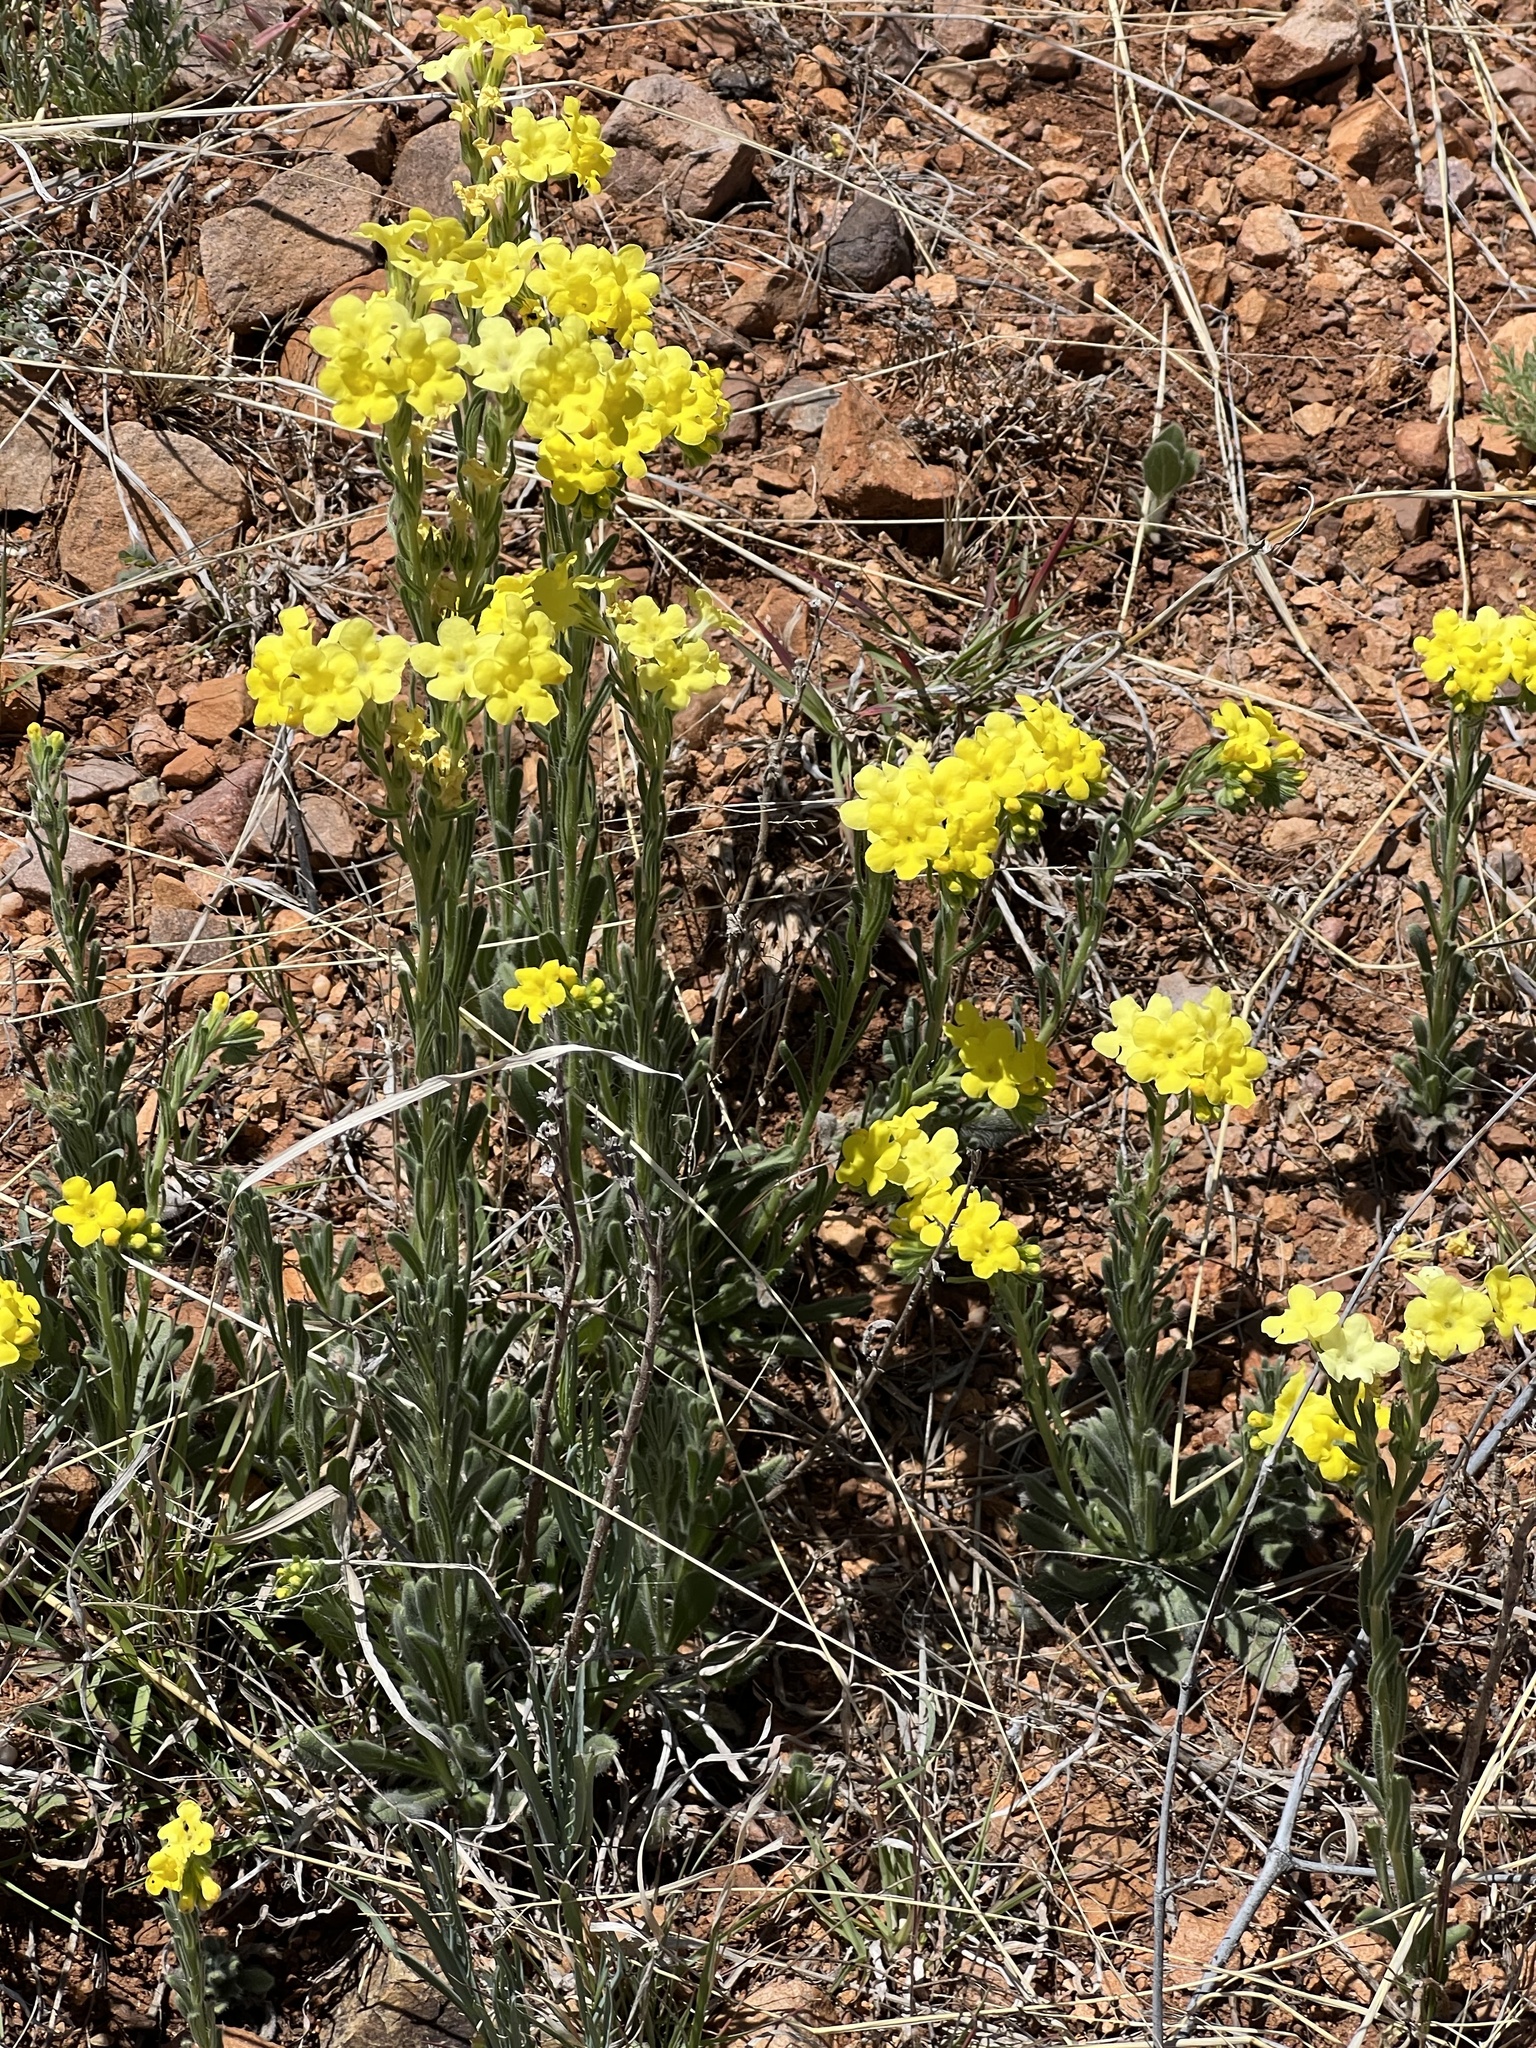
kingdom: Plantae
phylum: Tracheophyta
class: Magnoliopsida
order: Boraginales
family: Boraginaceae
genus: Lithospermum
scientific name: Lithospermum cobrense
